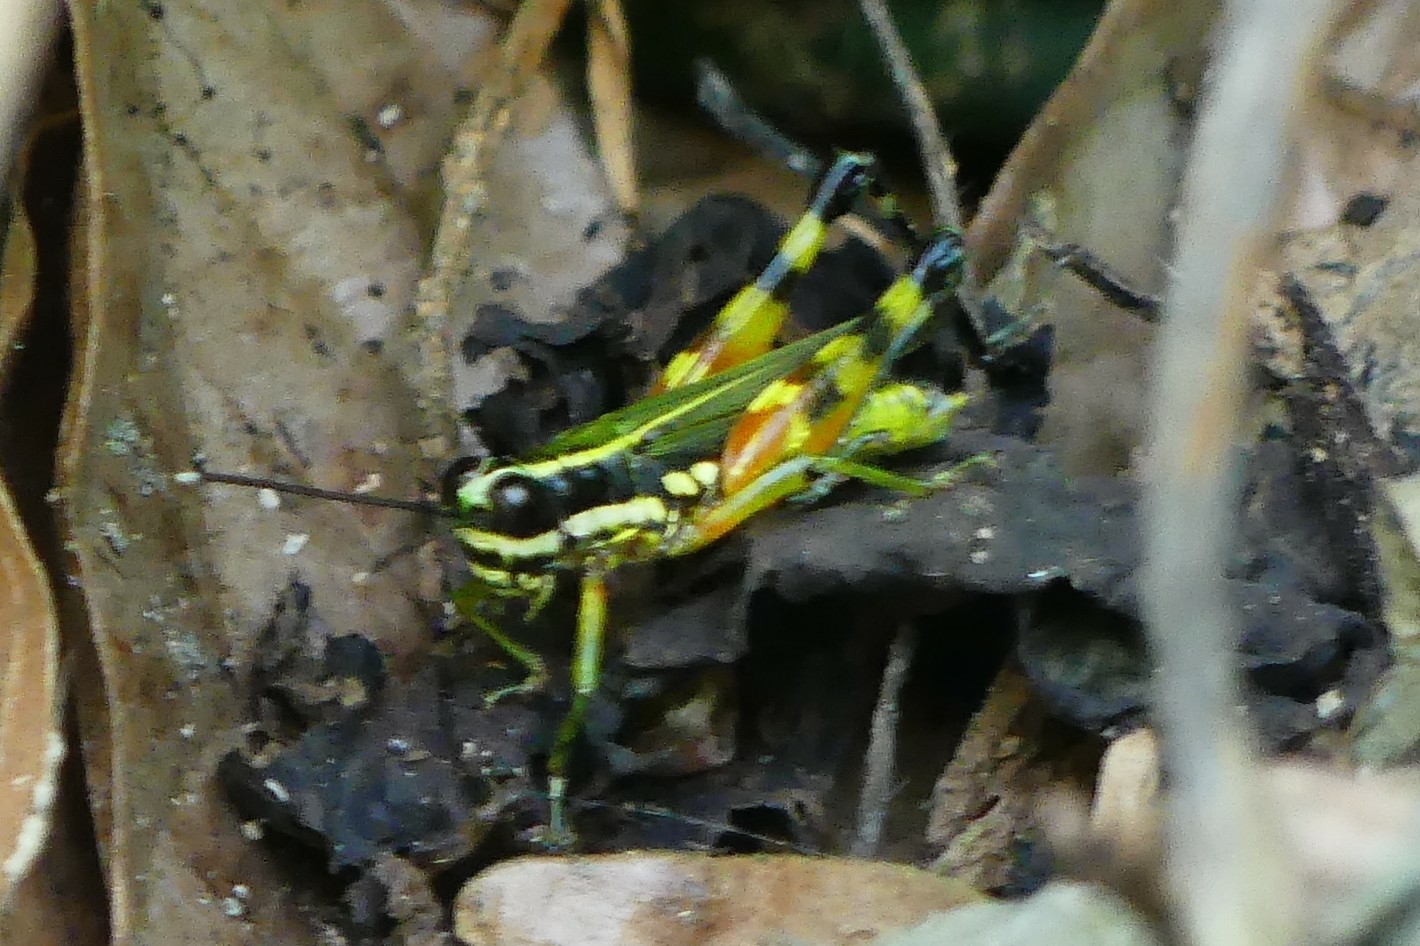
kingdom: Animalia
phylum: Arthropoda
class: Insecta
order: Orthoptera
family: Acrididae
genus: Tetrataenia
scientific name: Tetrataenia surinama
